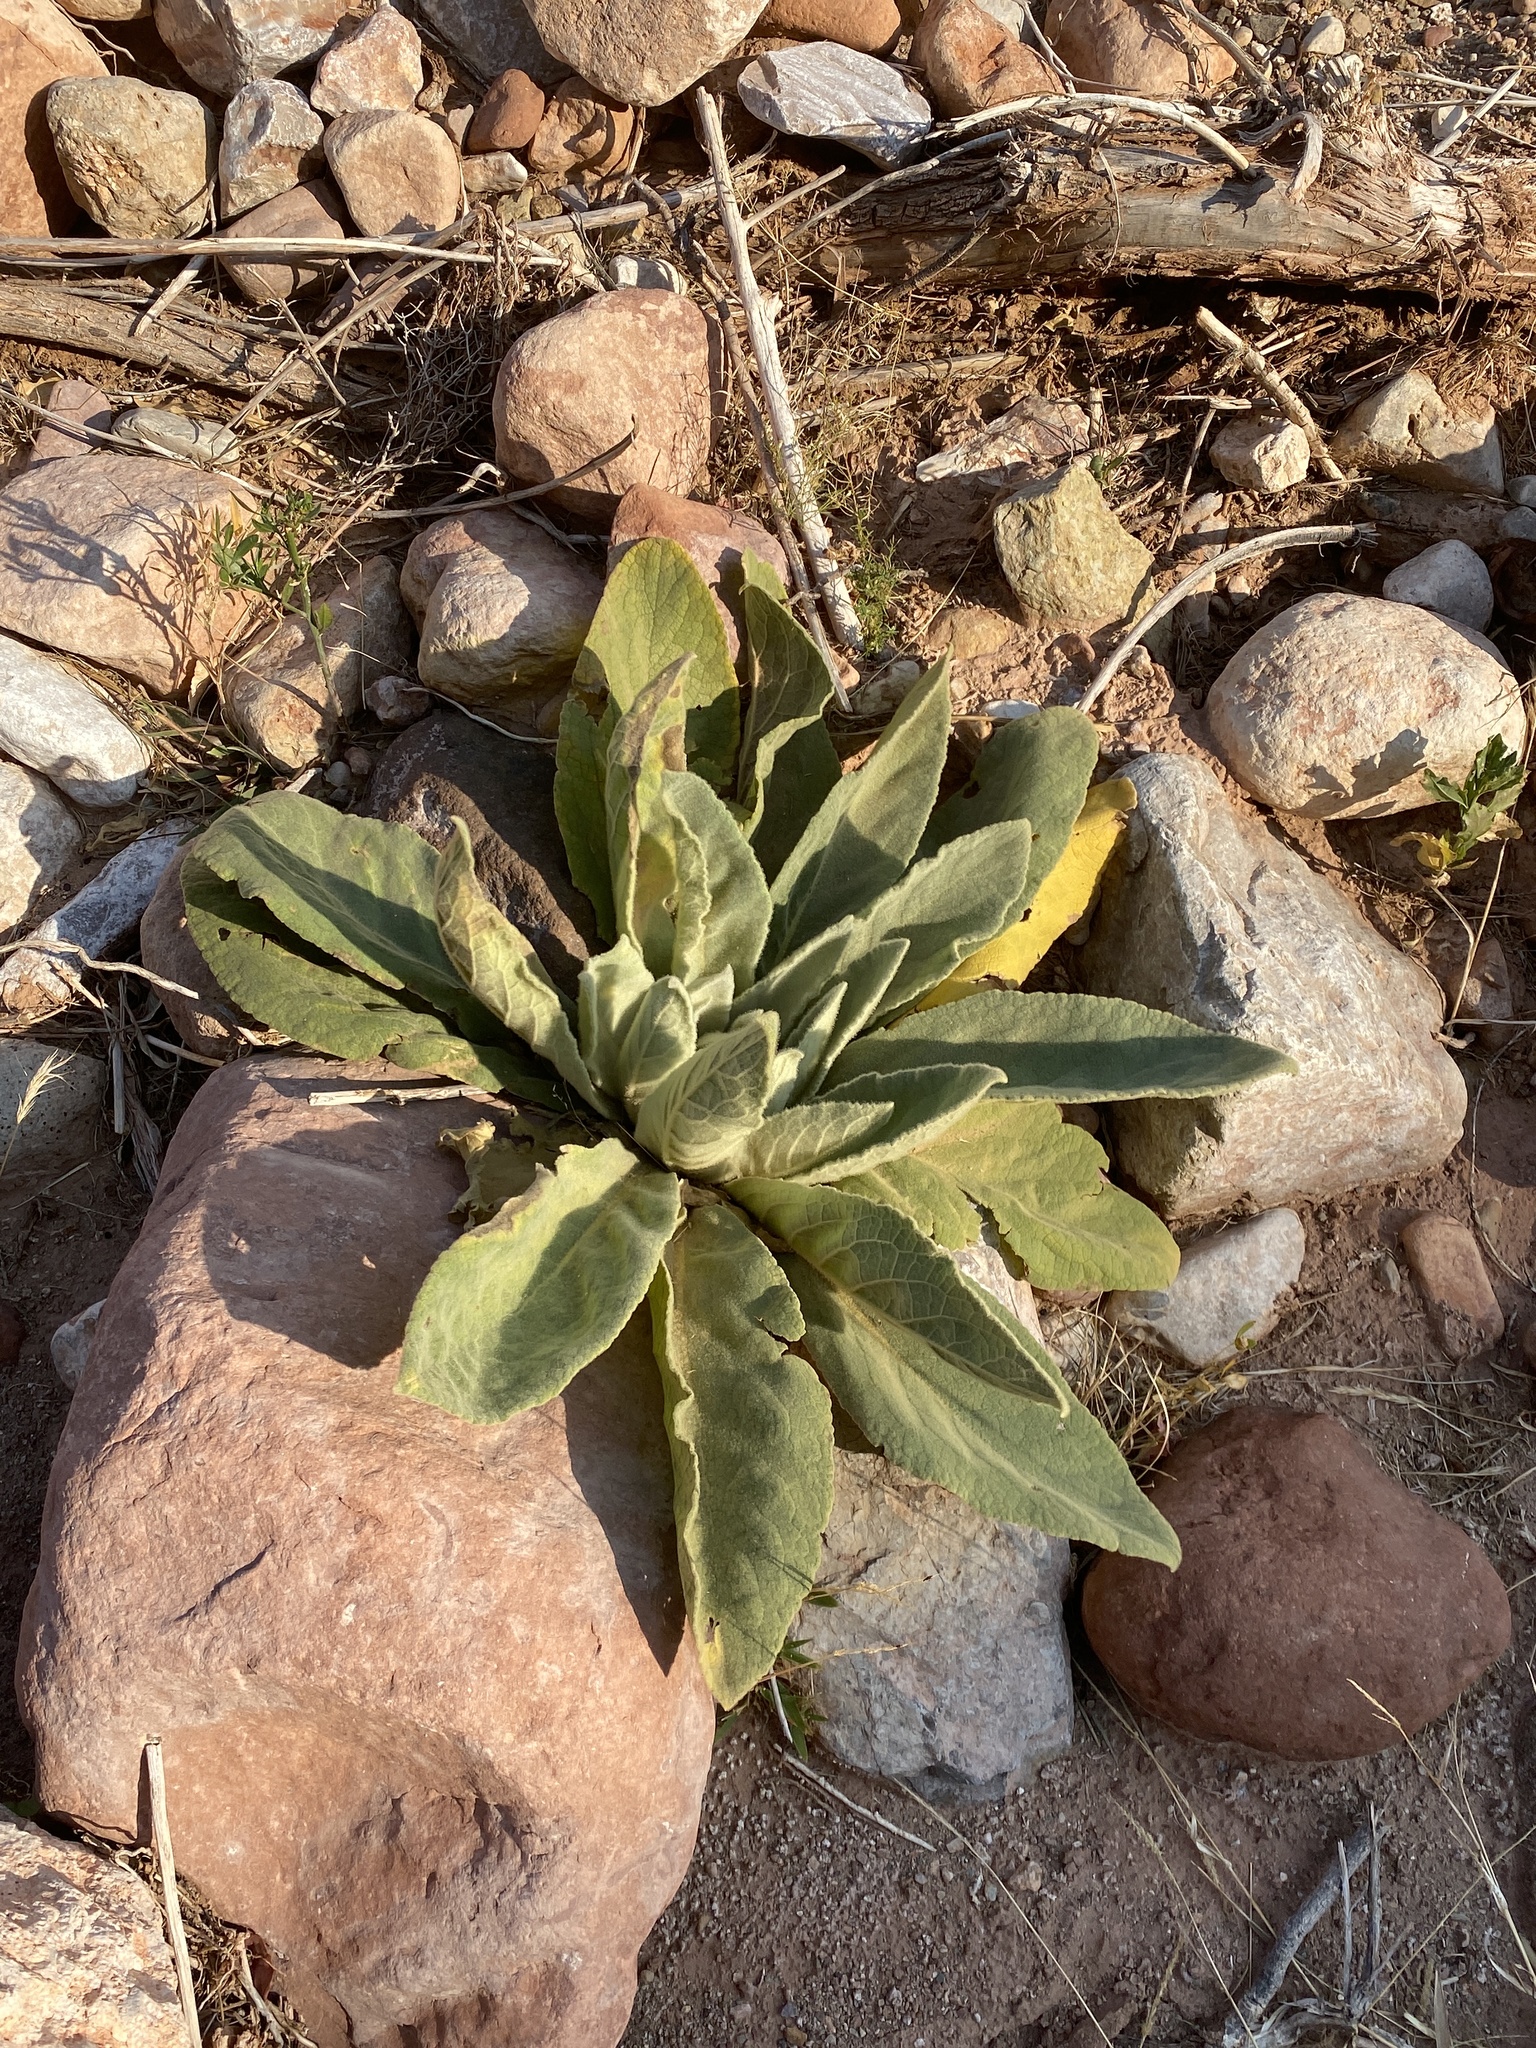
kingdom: Plantae
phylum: Tracheophyta
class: Magnoliopsida
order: Lamiales
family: Scrophulariaceae
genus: Verbascum
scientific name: Verbascum thapsus
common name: Common mullein
